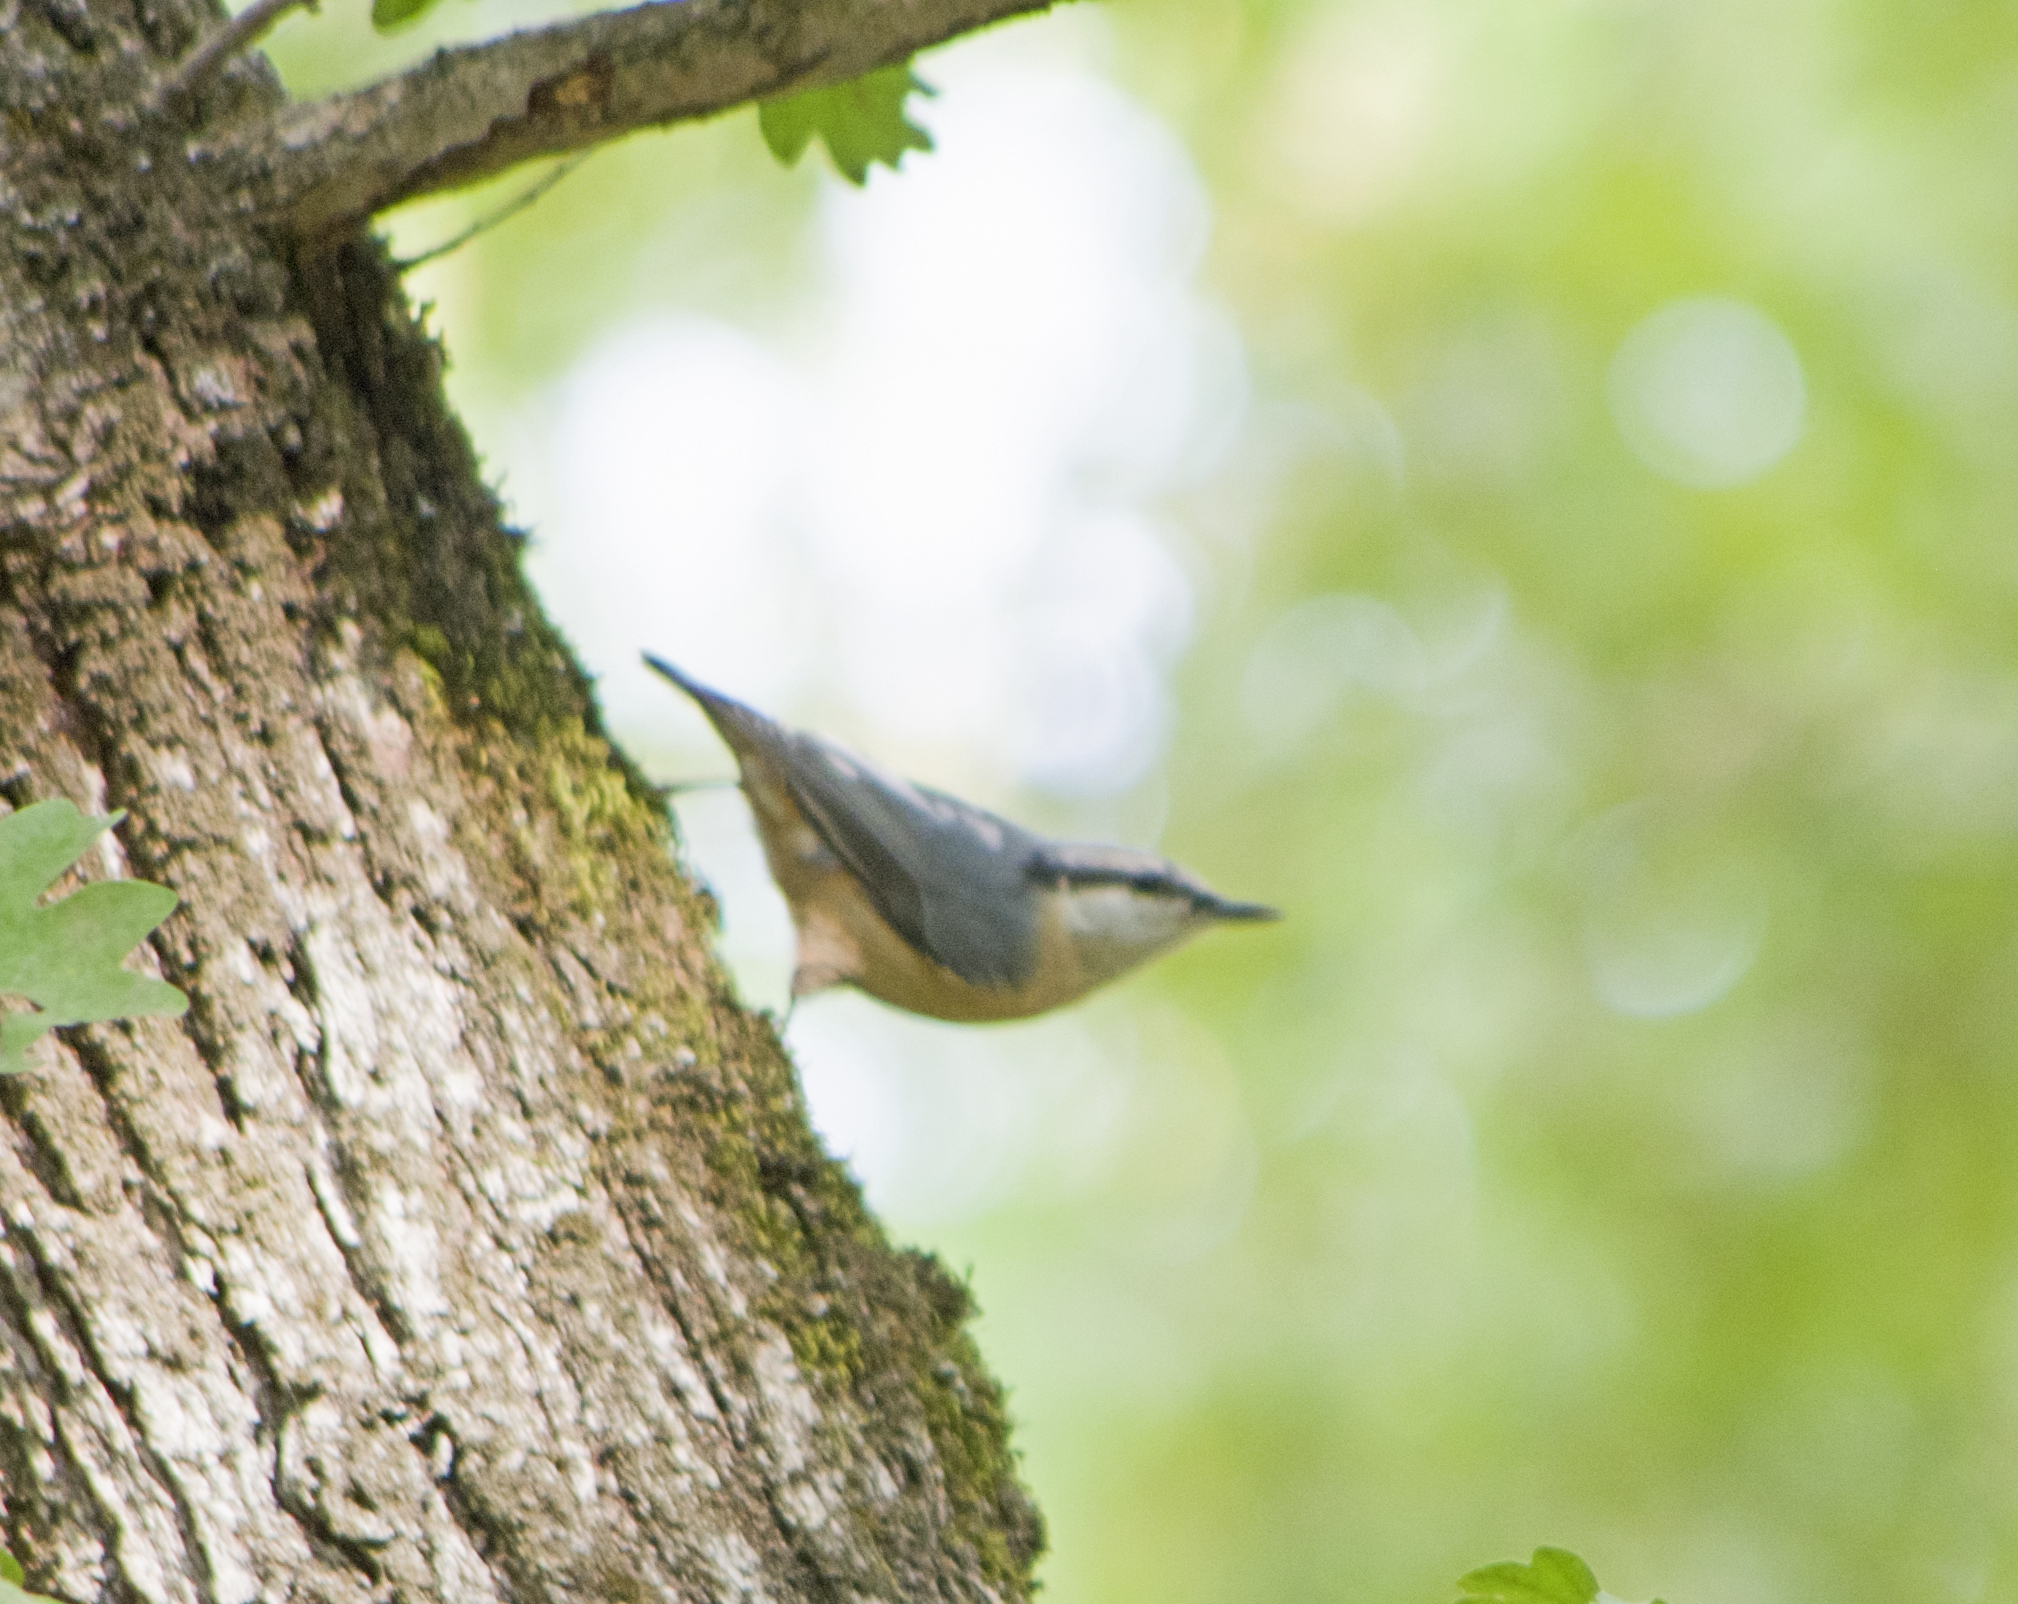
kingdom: Animalia
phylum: Chordata
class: Aves
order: Passeriformes
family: Sittidae
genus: Sitta
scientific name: Sitta europaea
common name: Eurasian nuthatch
